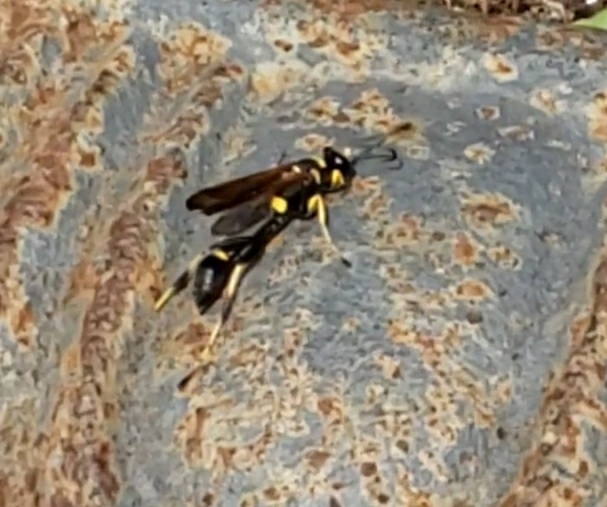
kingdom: Animalia
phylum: Arthropoda
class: Insecta
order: Hymenoptera
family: Sphecidae
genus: Sceliphron
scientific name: Sceliphron caementarium
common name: Mud dauber
